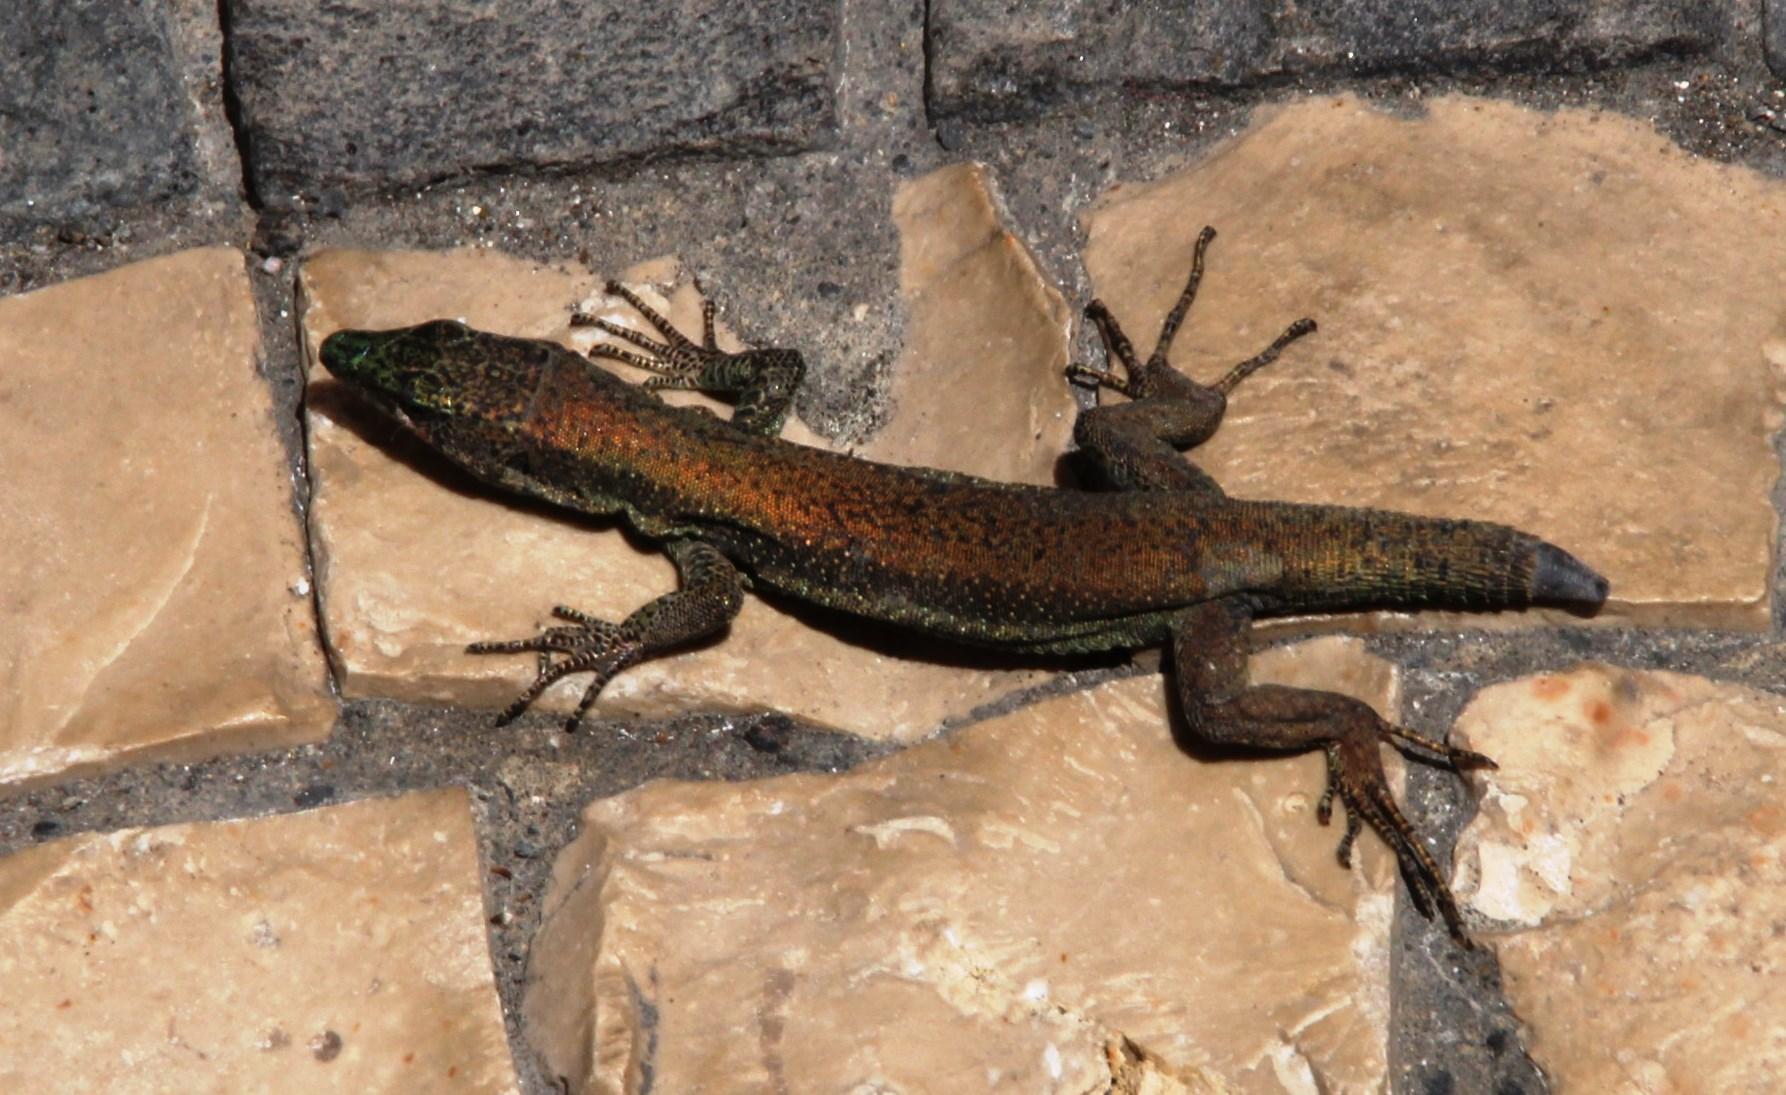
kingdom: Animalia
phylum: Chordata
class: Squamata
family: Lacertidae
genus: Teira
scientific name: Teira dugesii
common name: Madeira lizard
